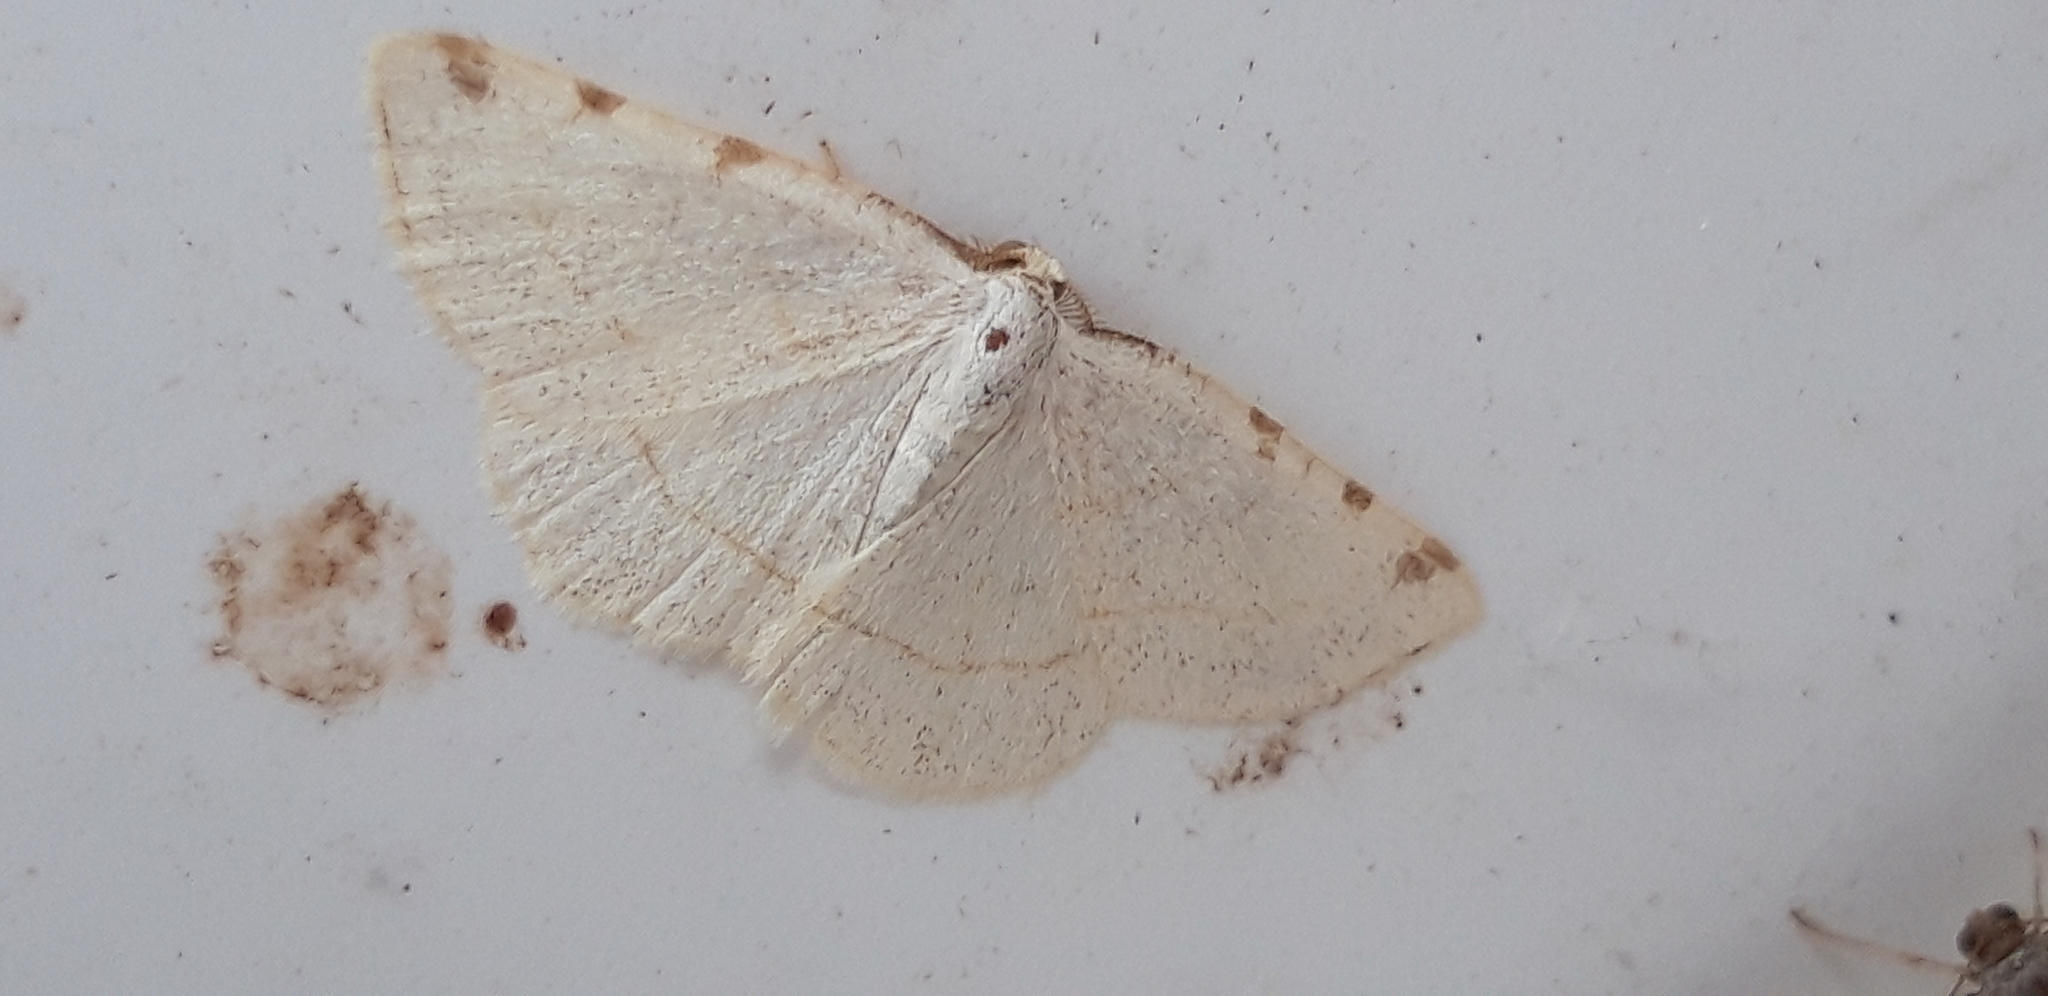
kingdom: Animalia
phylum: Arthropoda
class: Insecta
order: Lepidoptera
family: Geometridae
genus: Stegania
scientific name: Stegania trimaculata
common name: Dorset cream wave
